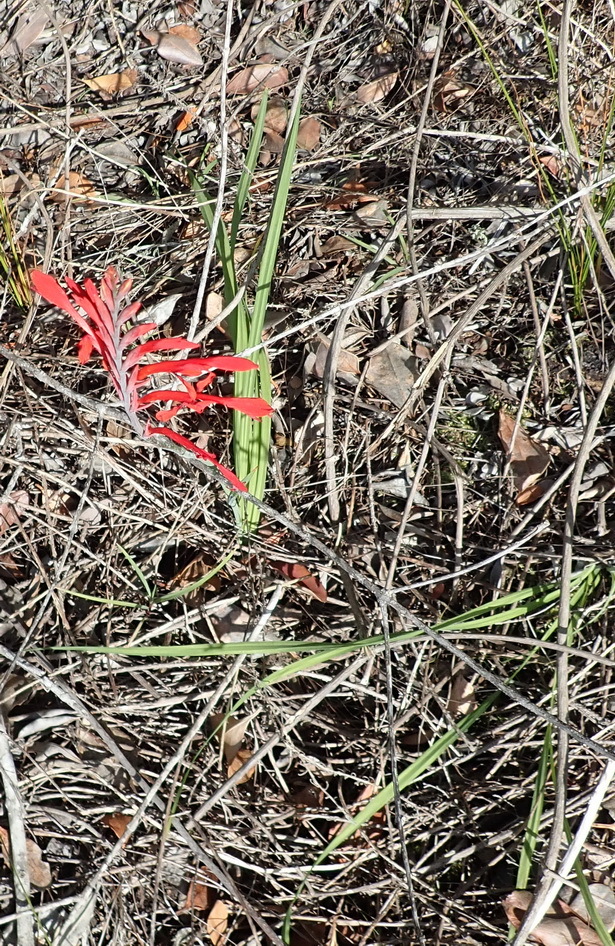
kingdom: Plantae
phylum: Tracheophyta
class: Liliopsida
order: Asparagales
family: Iridaceae
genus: Tritoniopsis
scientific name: Tritoniopsis caffra
